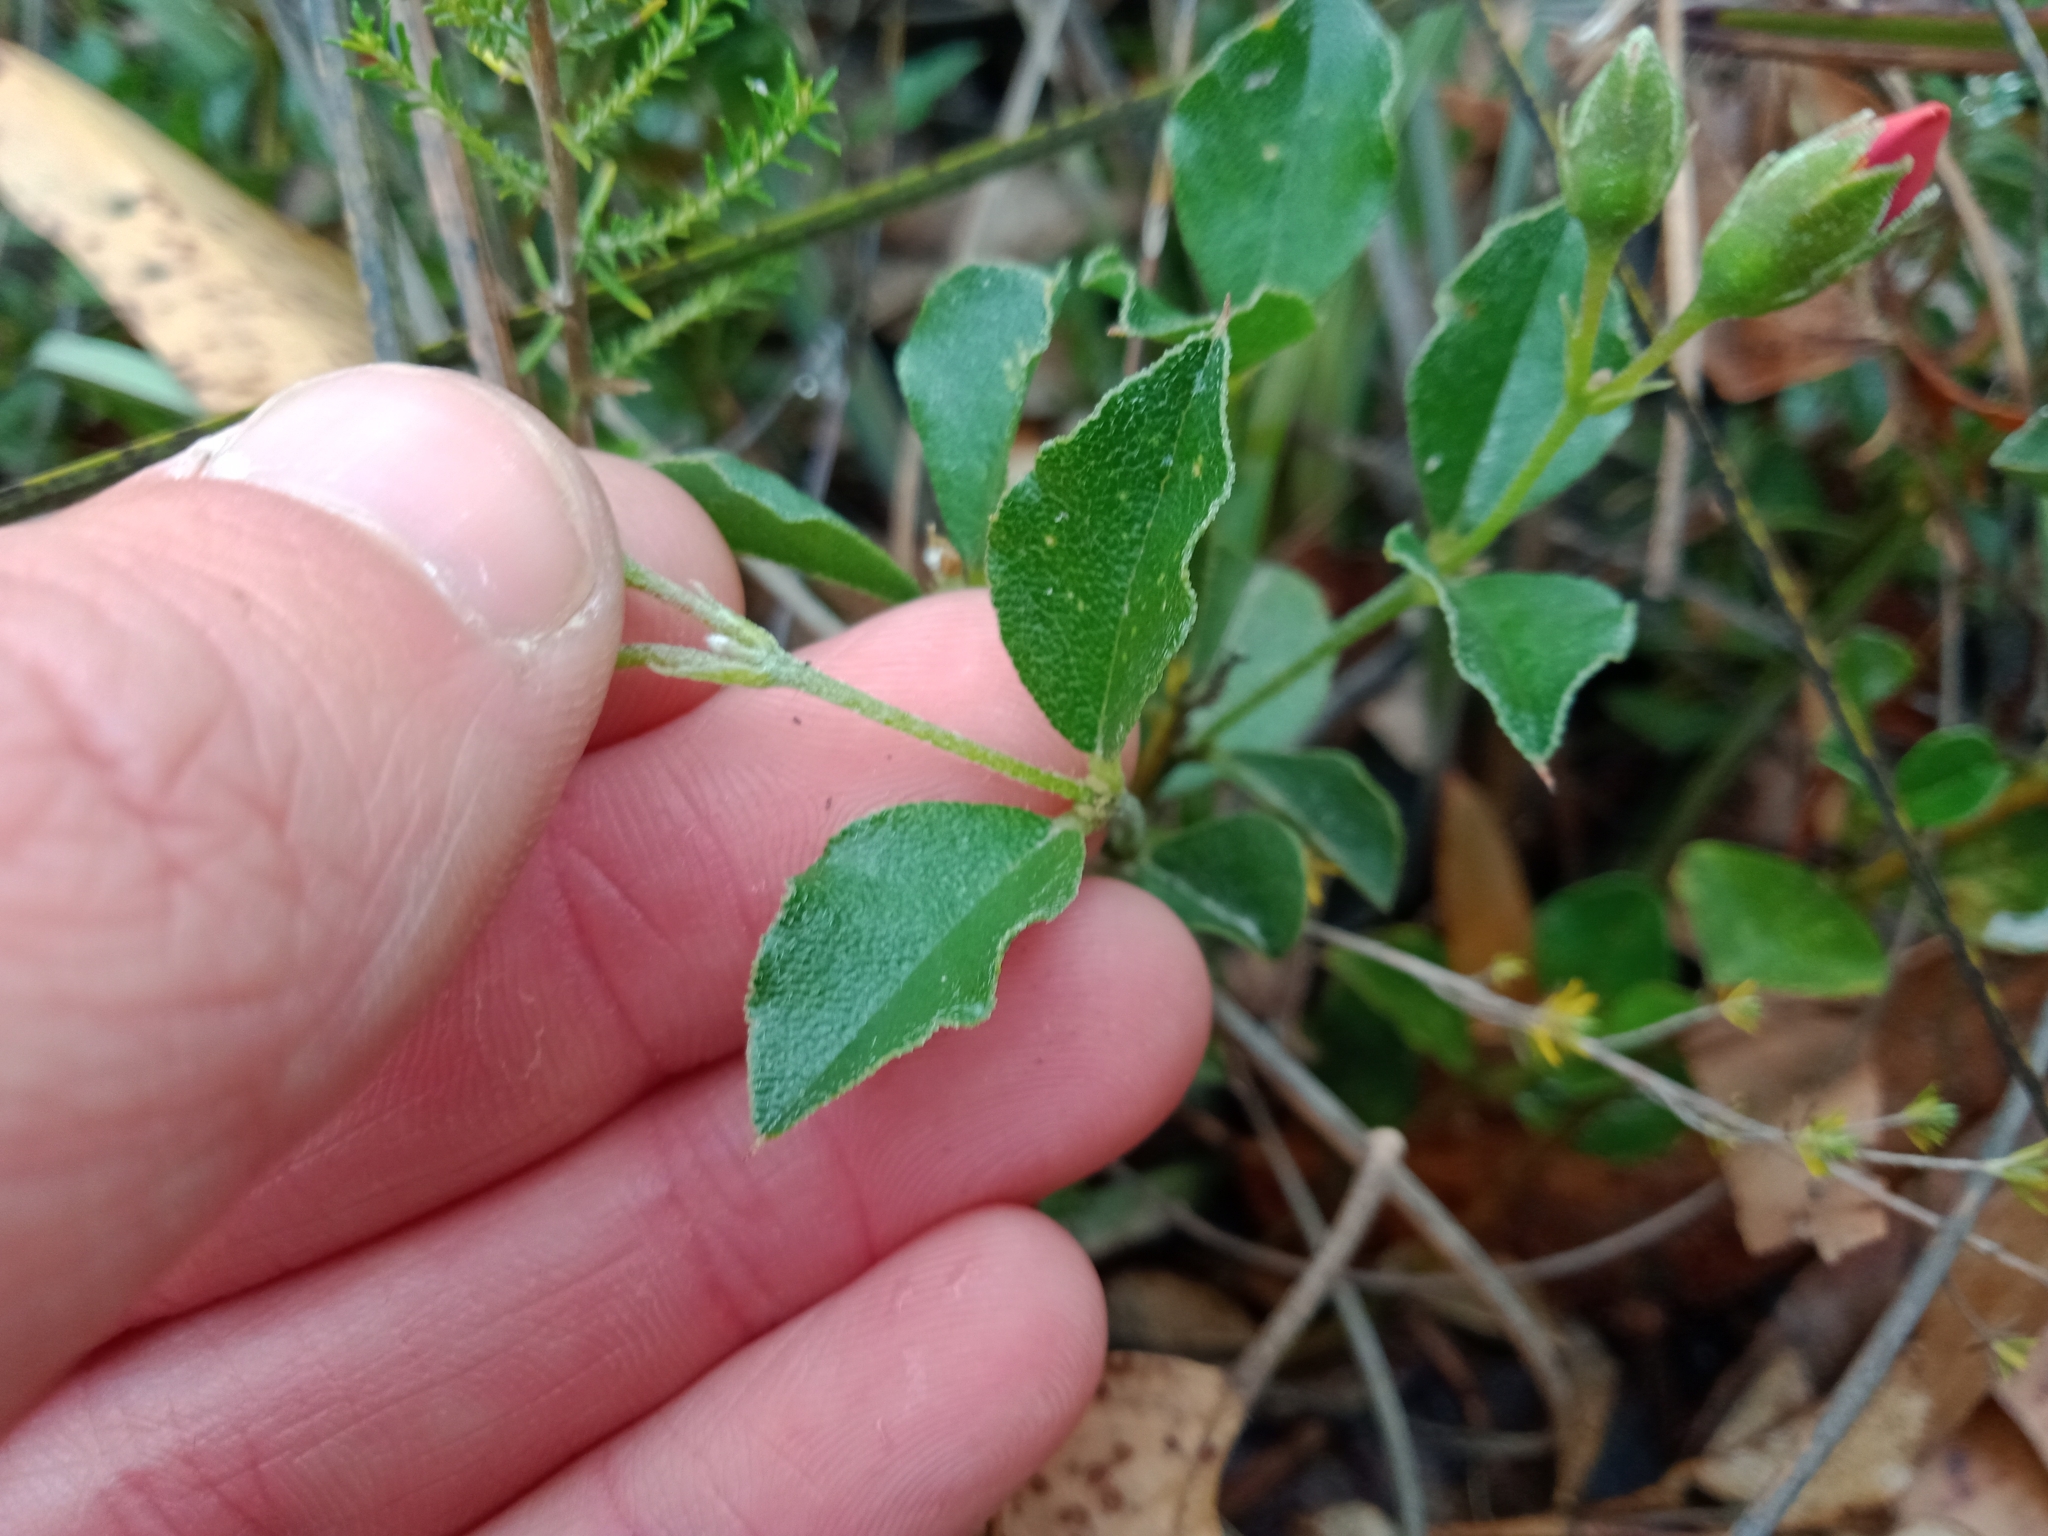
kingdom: Plantae
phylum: Tracheophyta
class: Magnoliopsida
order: Fabales
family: Fabaceae
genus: Podolobium
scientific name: Podolobium procumbens
